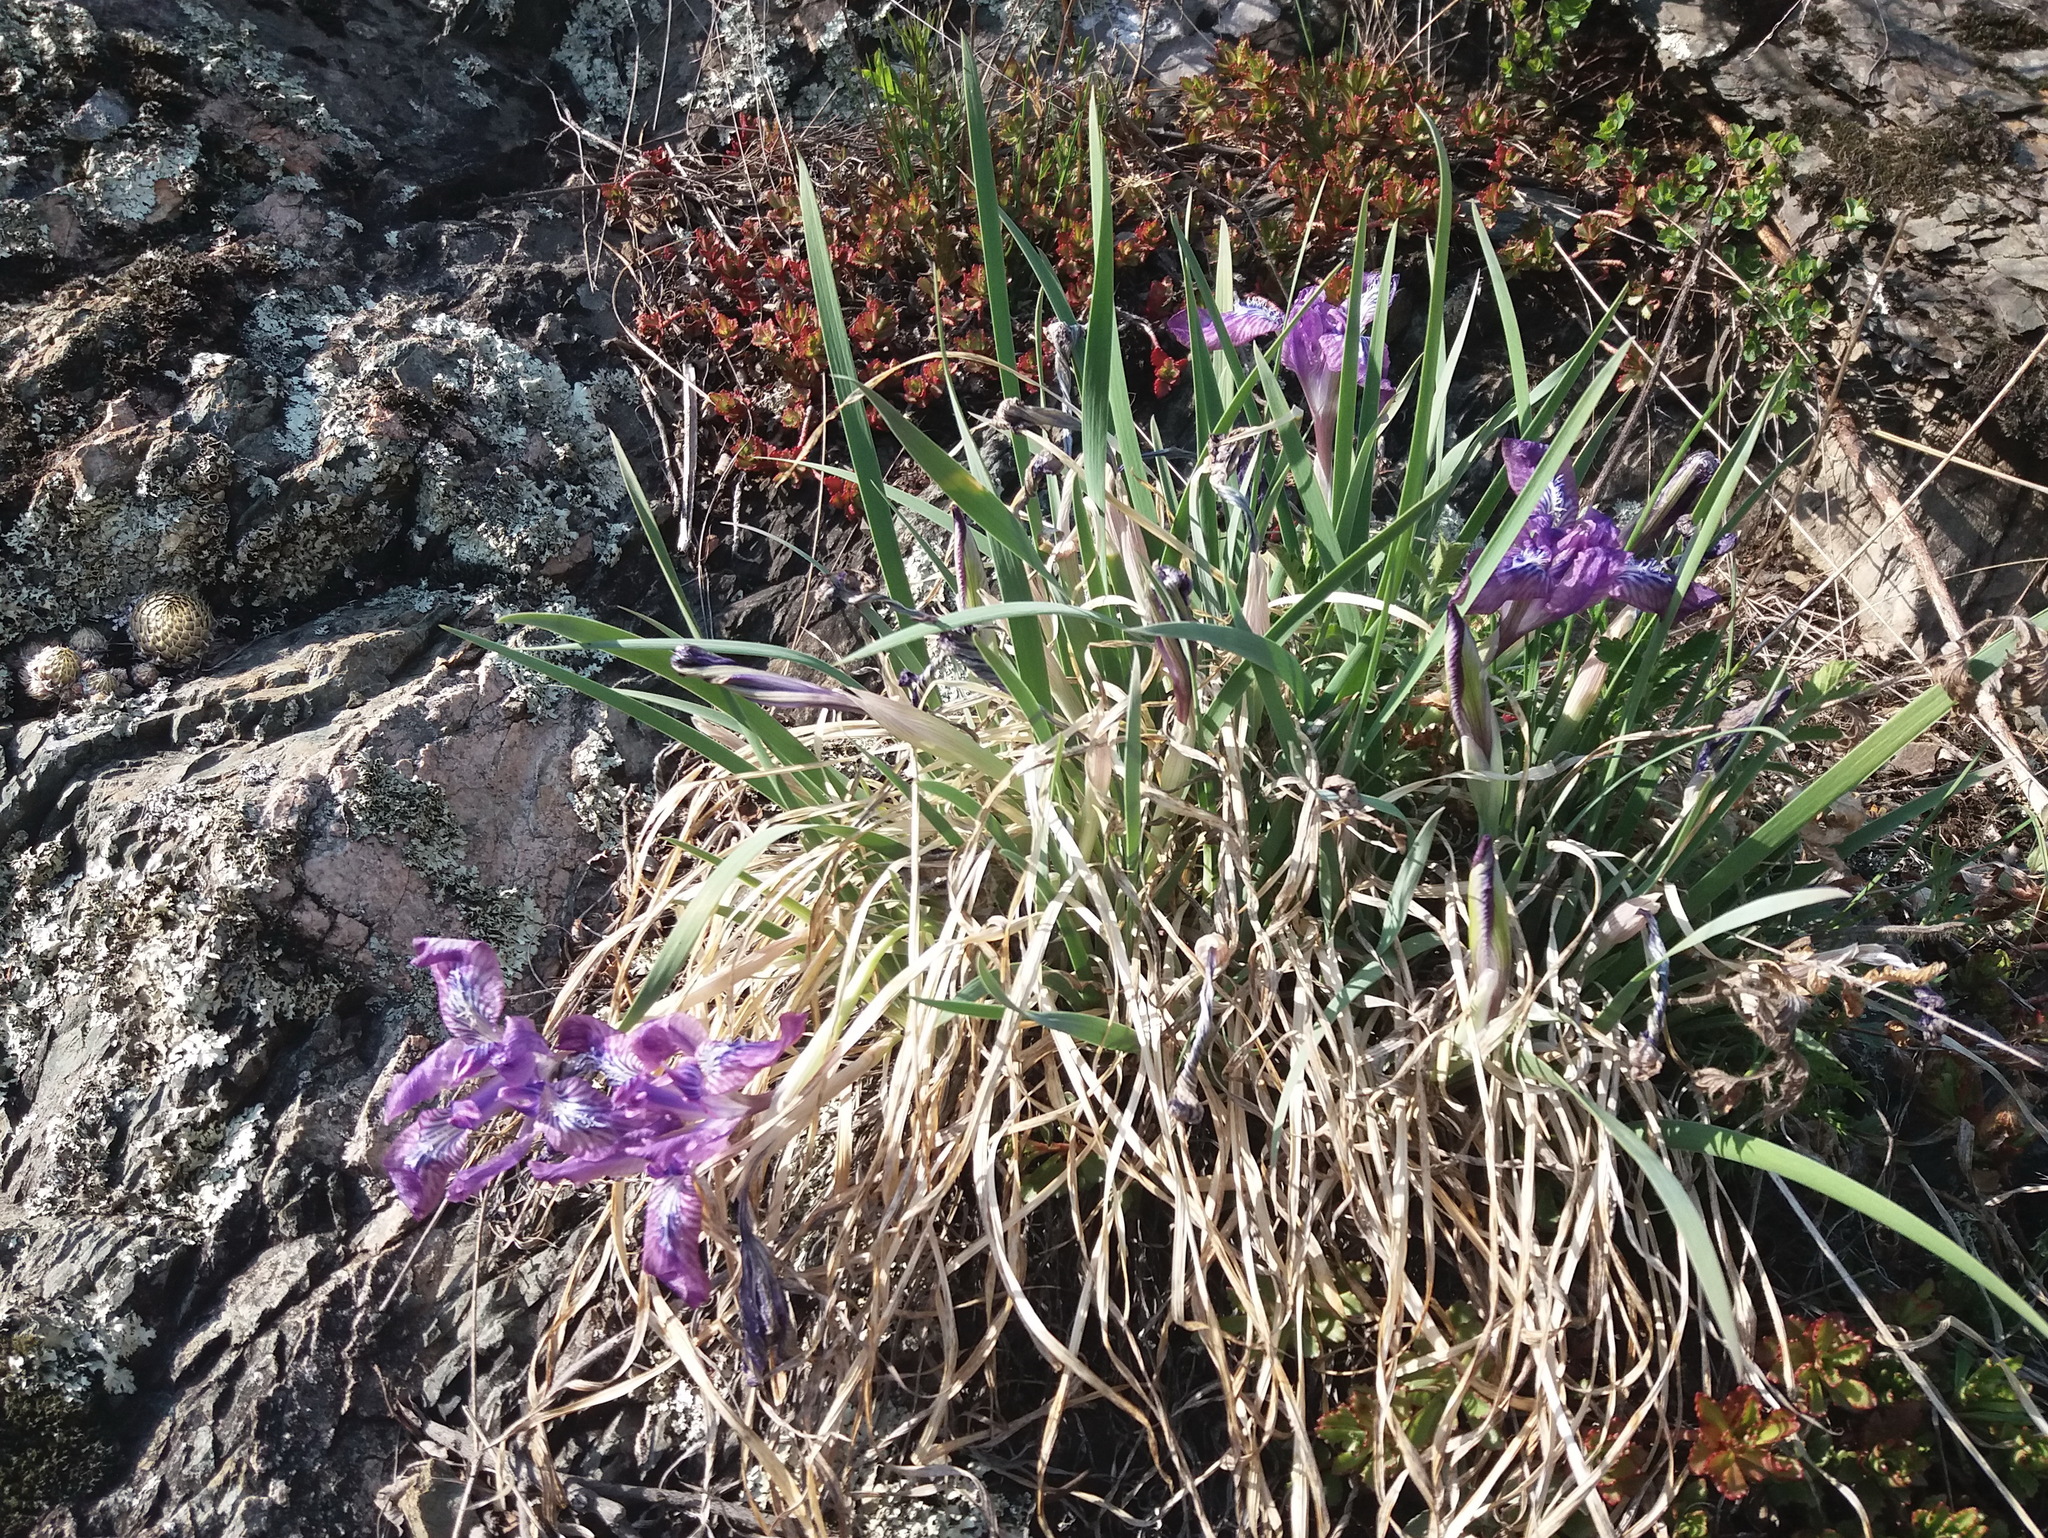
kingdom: Plantae
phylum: Tracheophyta
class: Liliopsida
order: Asparagales
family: Iridaceae
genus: Iris
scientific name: Iris tigridia
